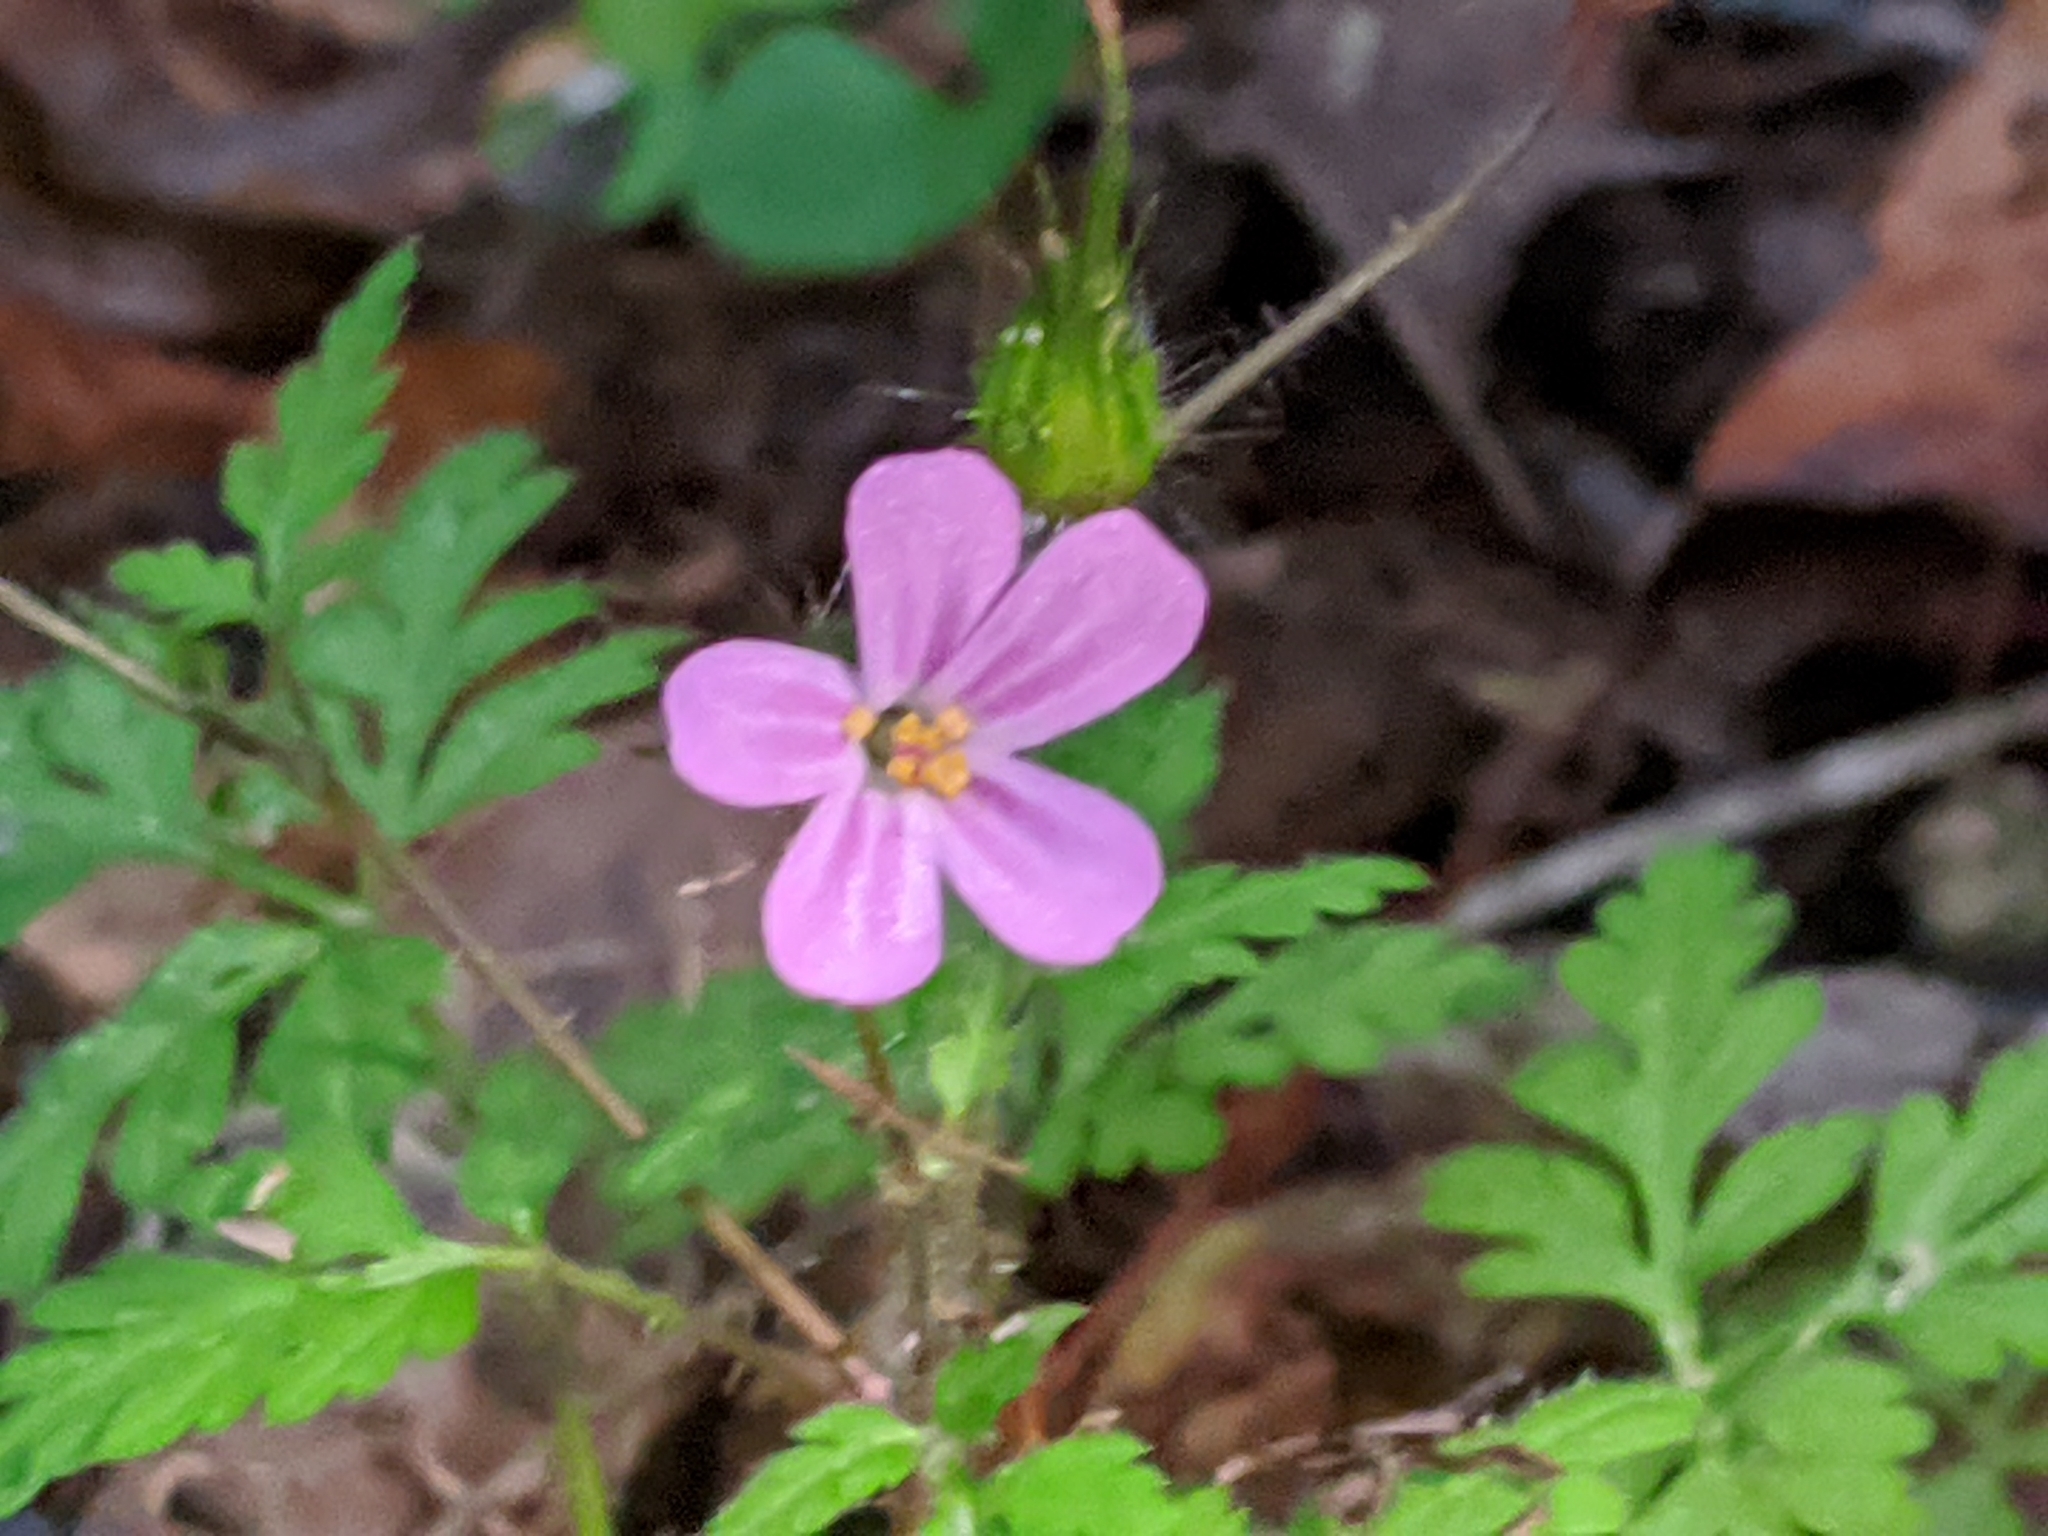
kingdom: Plantae
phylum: Tracheophyta
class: Magnoliopsida
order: Geraniales
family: Geraniaceae
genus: Geranium
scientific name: Geranium robertianum
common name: Herb-robert
